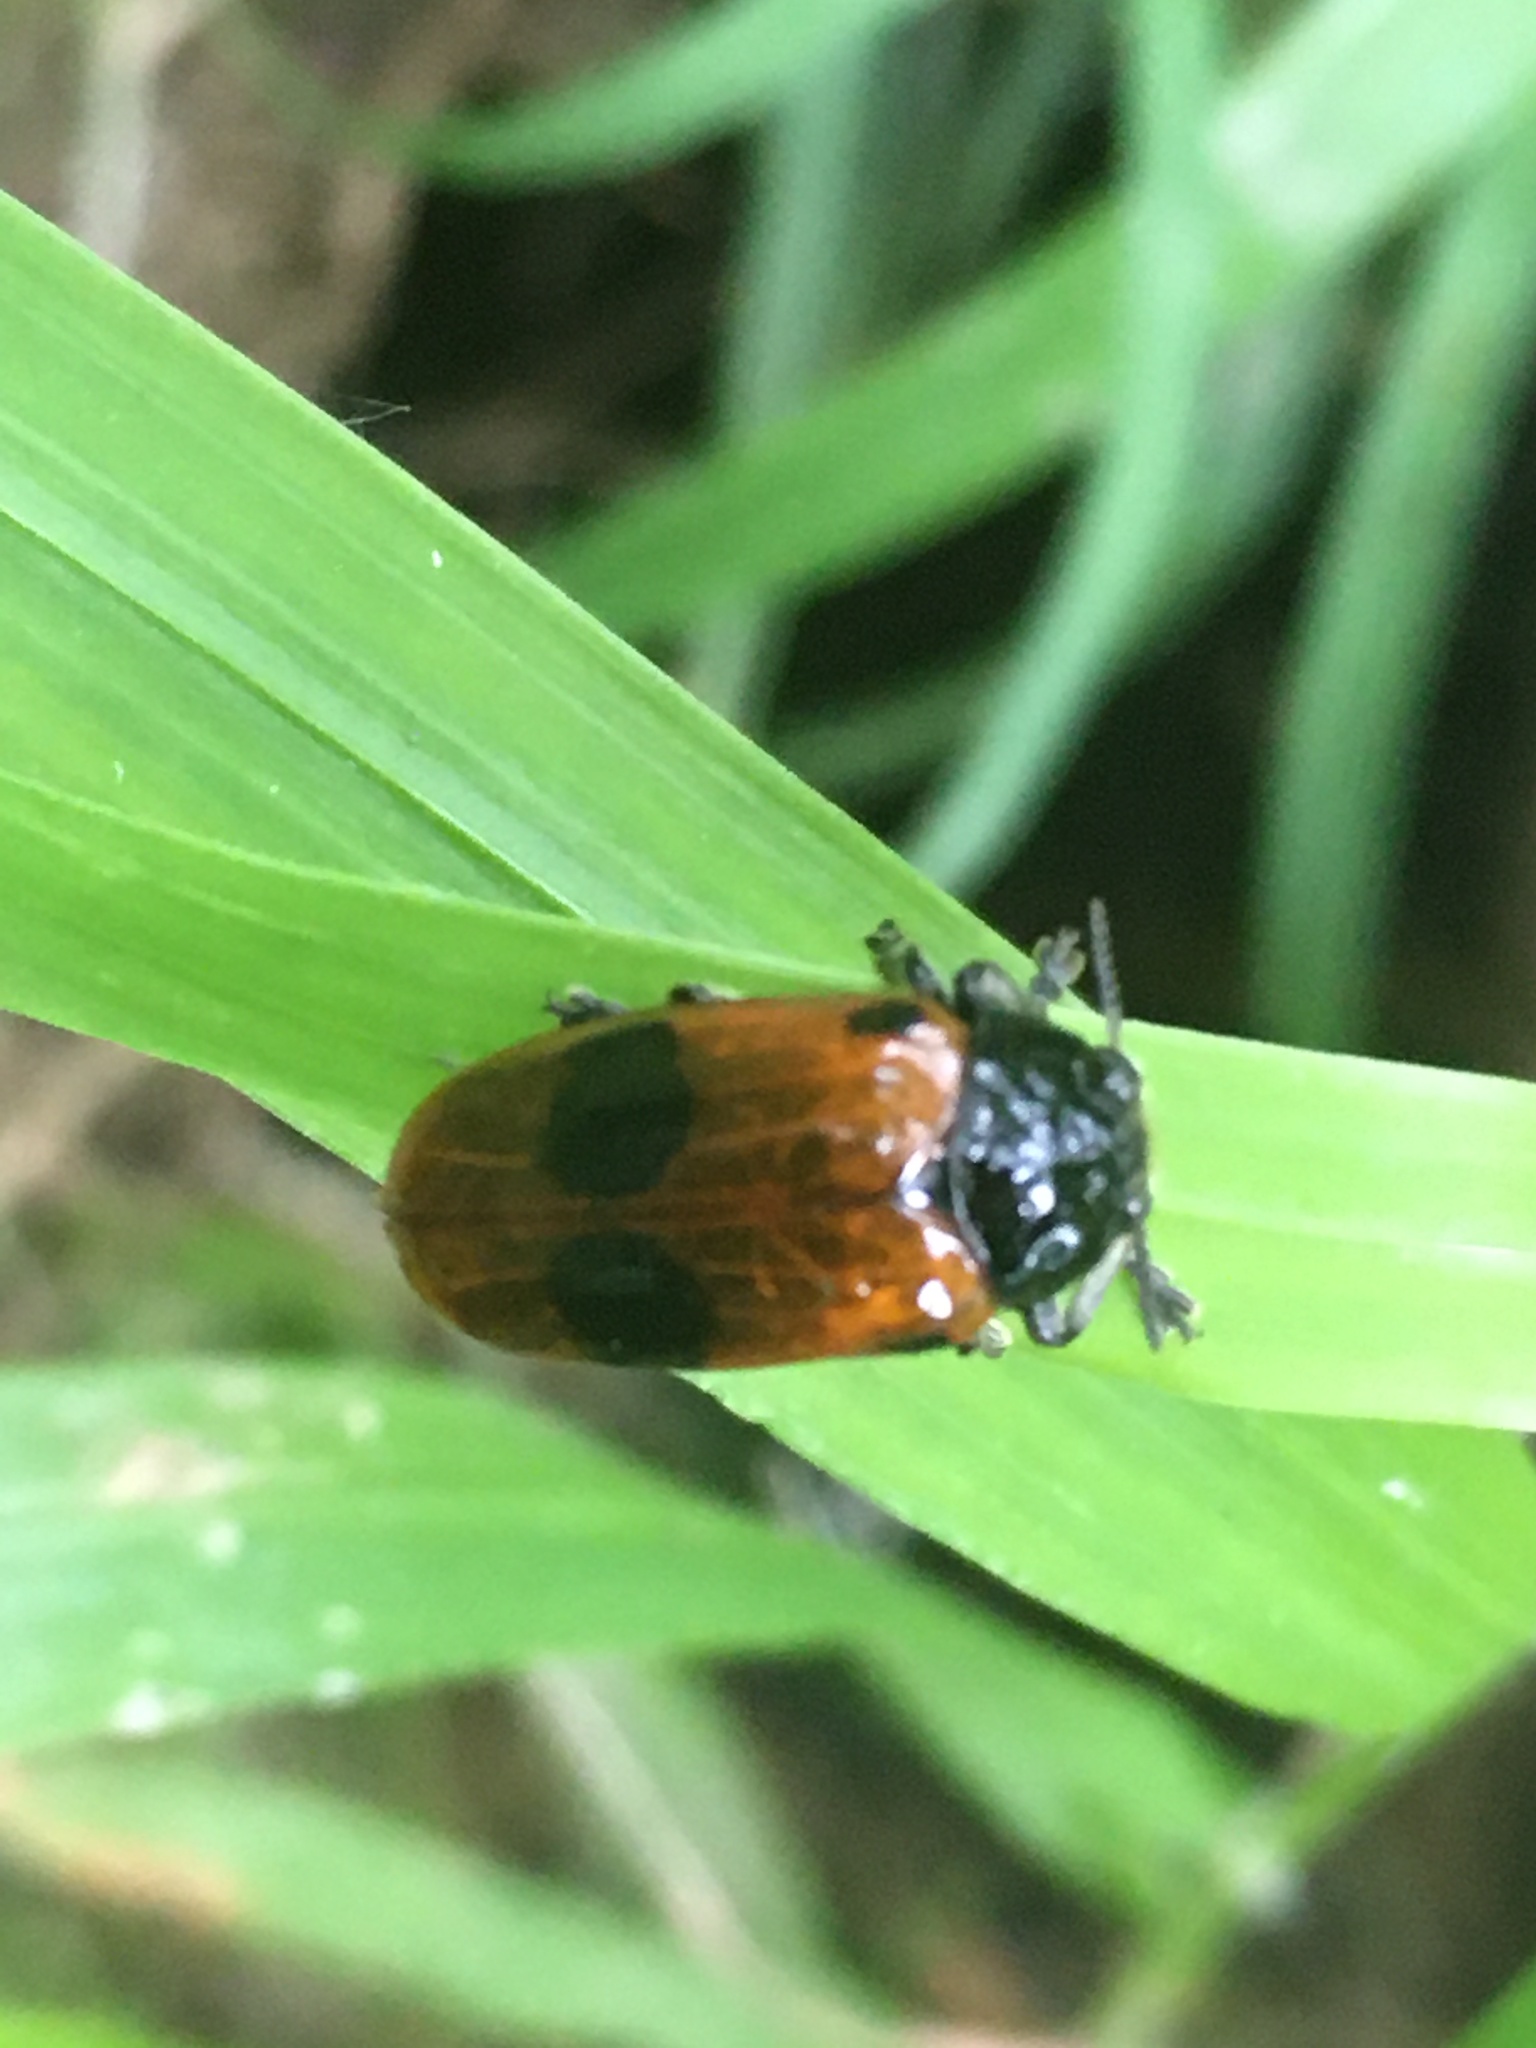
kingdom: Animalia
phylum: Arthropoda
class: Insecta
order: Coleoptera
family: Chrysomelidae
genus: Clytra
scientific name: Clytra laeviuscula
